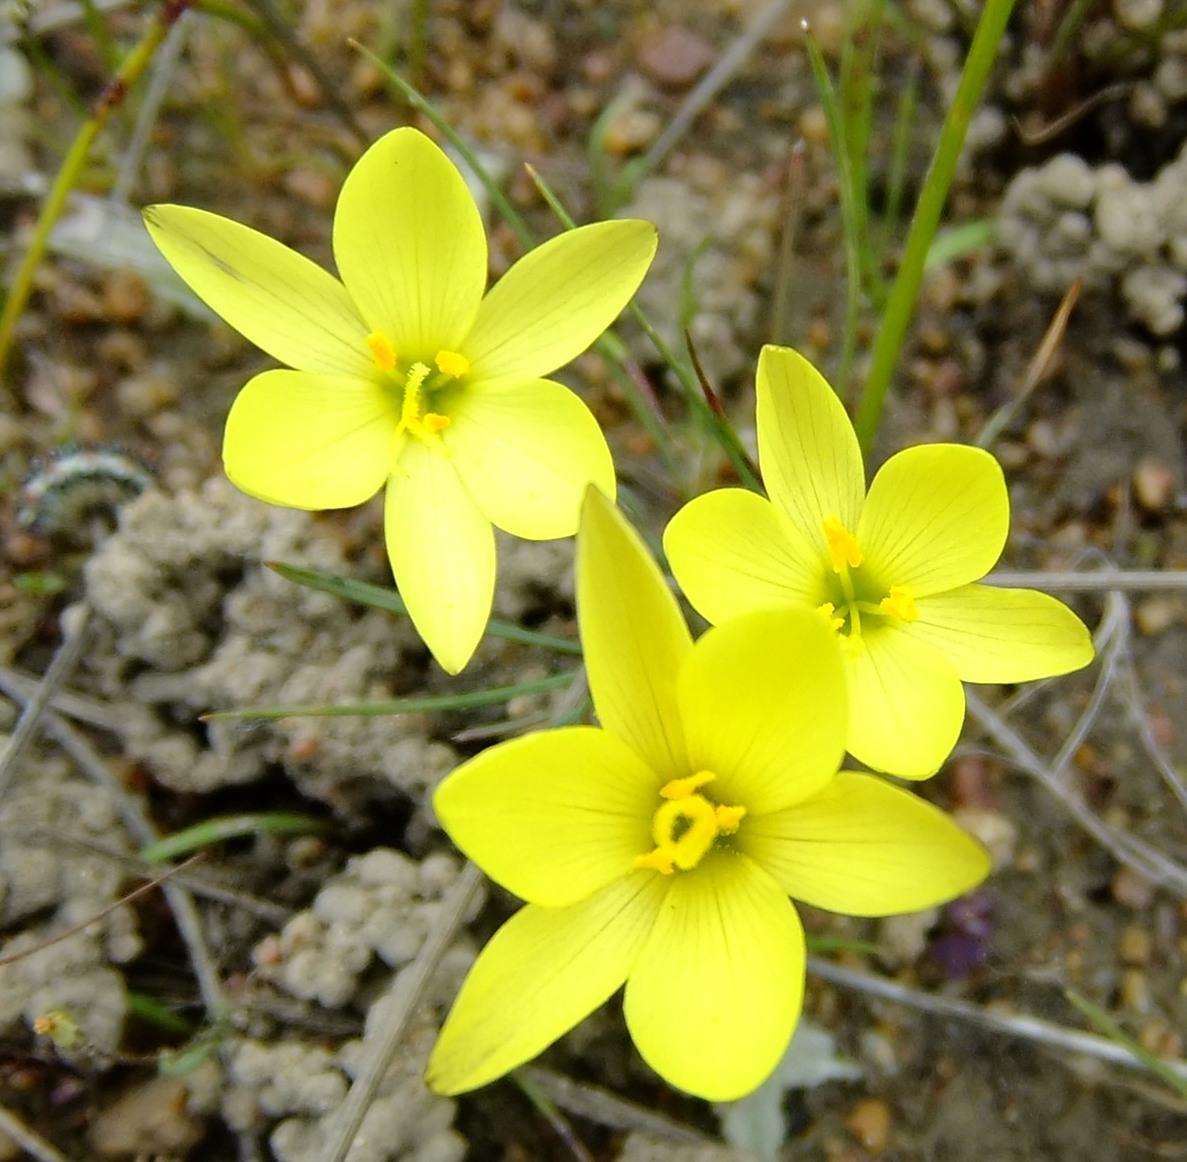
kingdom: Plantae
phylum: Tracheophyta
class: Liliopsida
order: Asparagales
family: Iridaceae
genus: Geissorhiza
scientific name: Geissorhiza ornithogaloides
